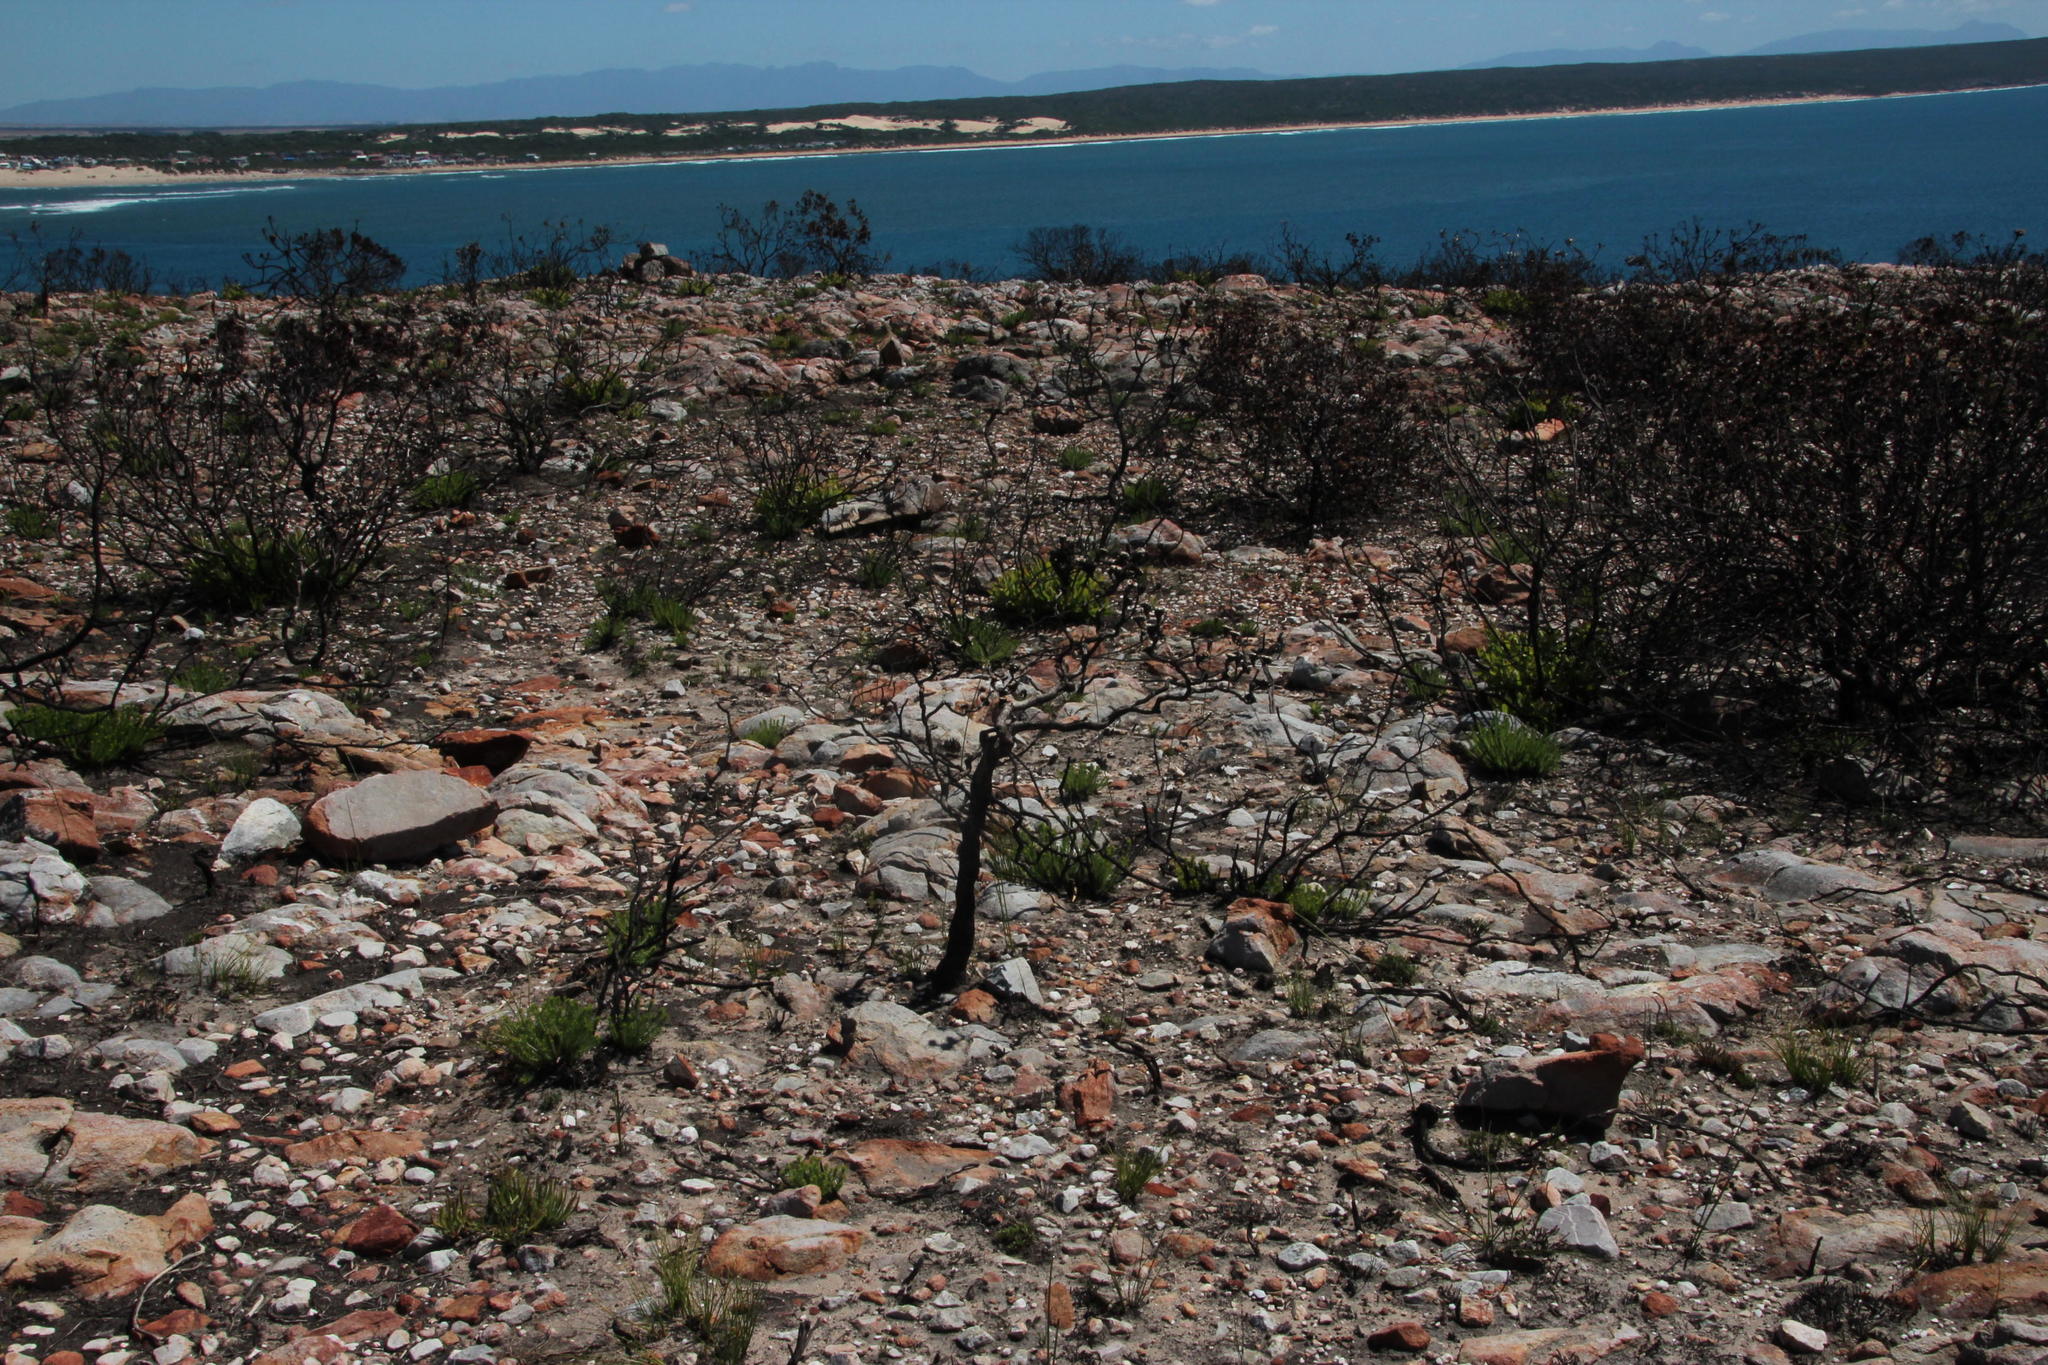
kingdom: Plantae
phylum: Tracheophyta
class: Magnoliopsida
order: Asterales
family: Asteraceae
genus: Phaenocoma
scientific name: Phaenocoma prolifera
